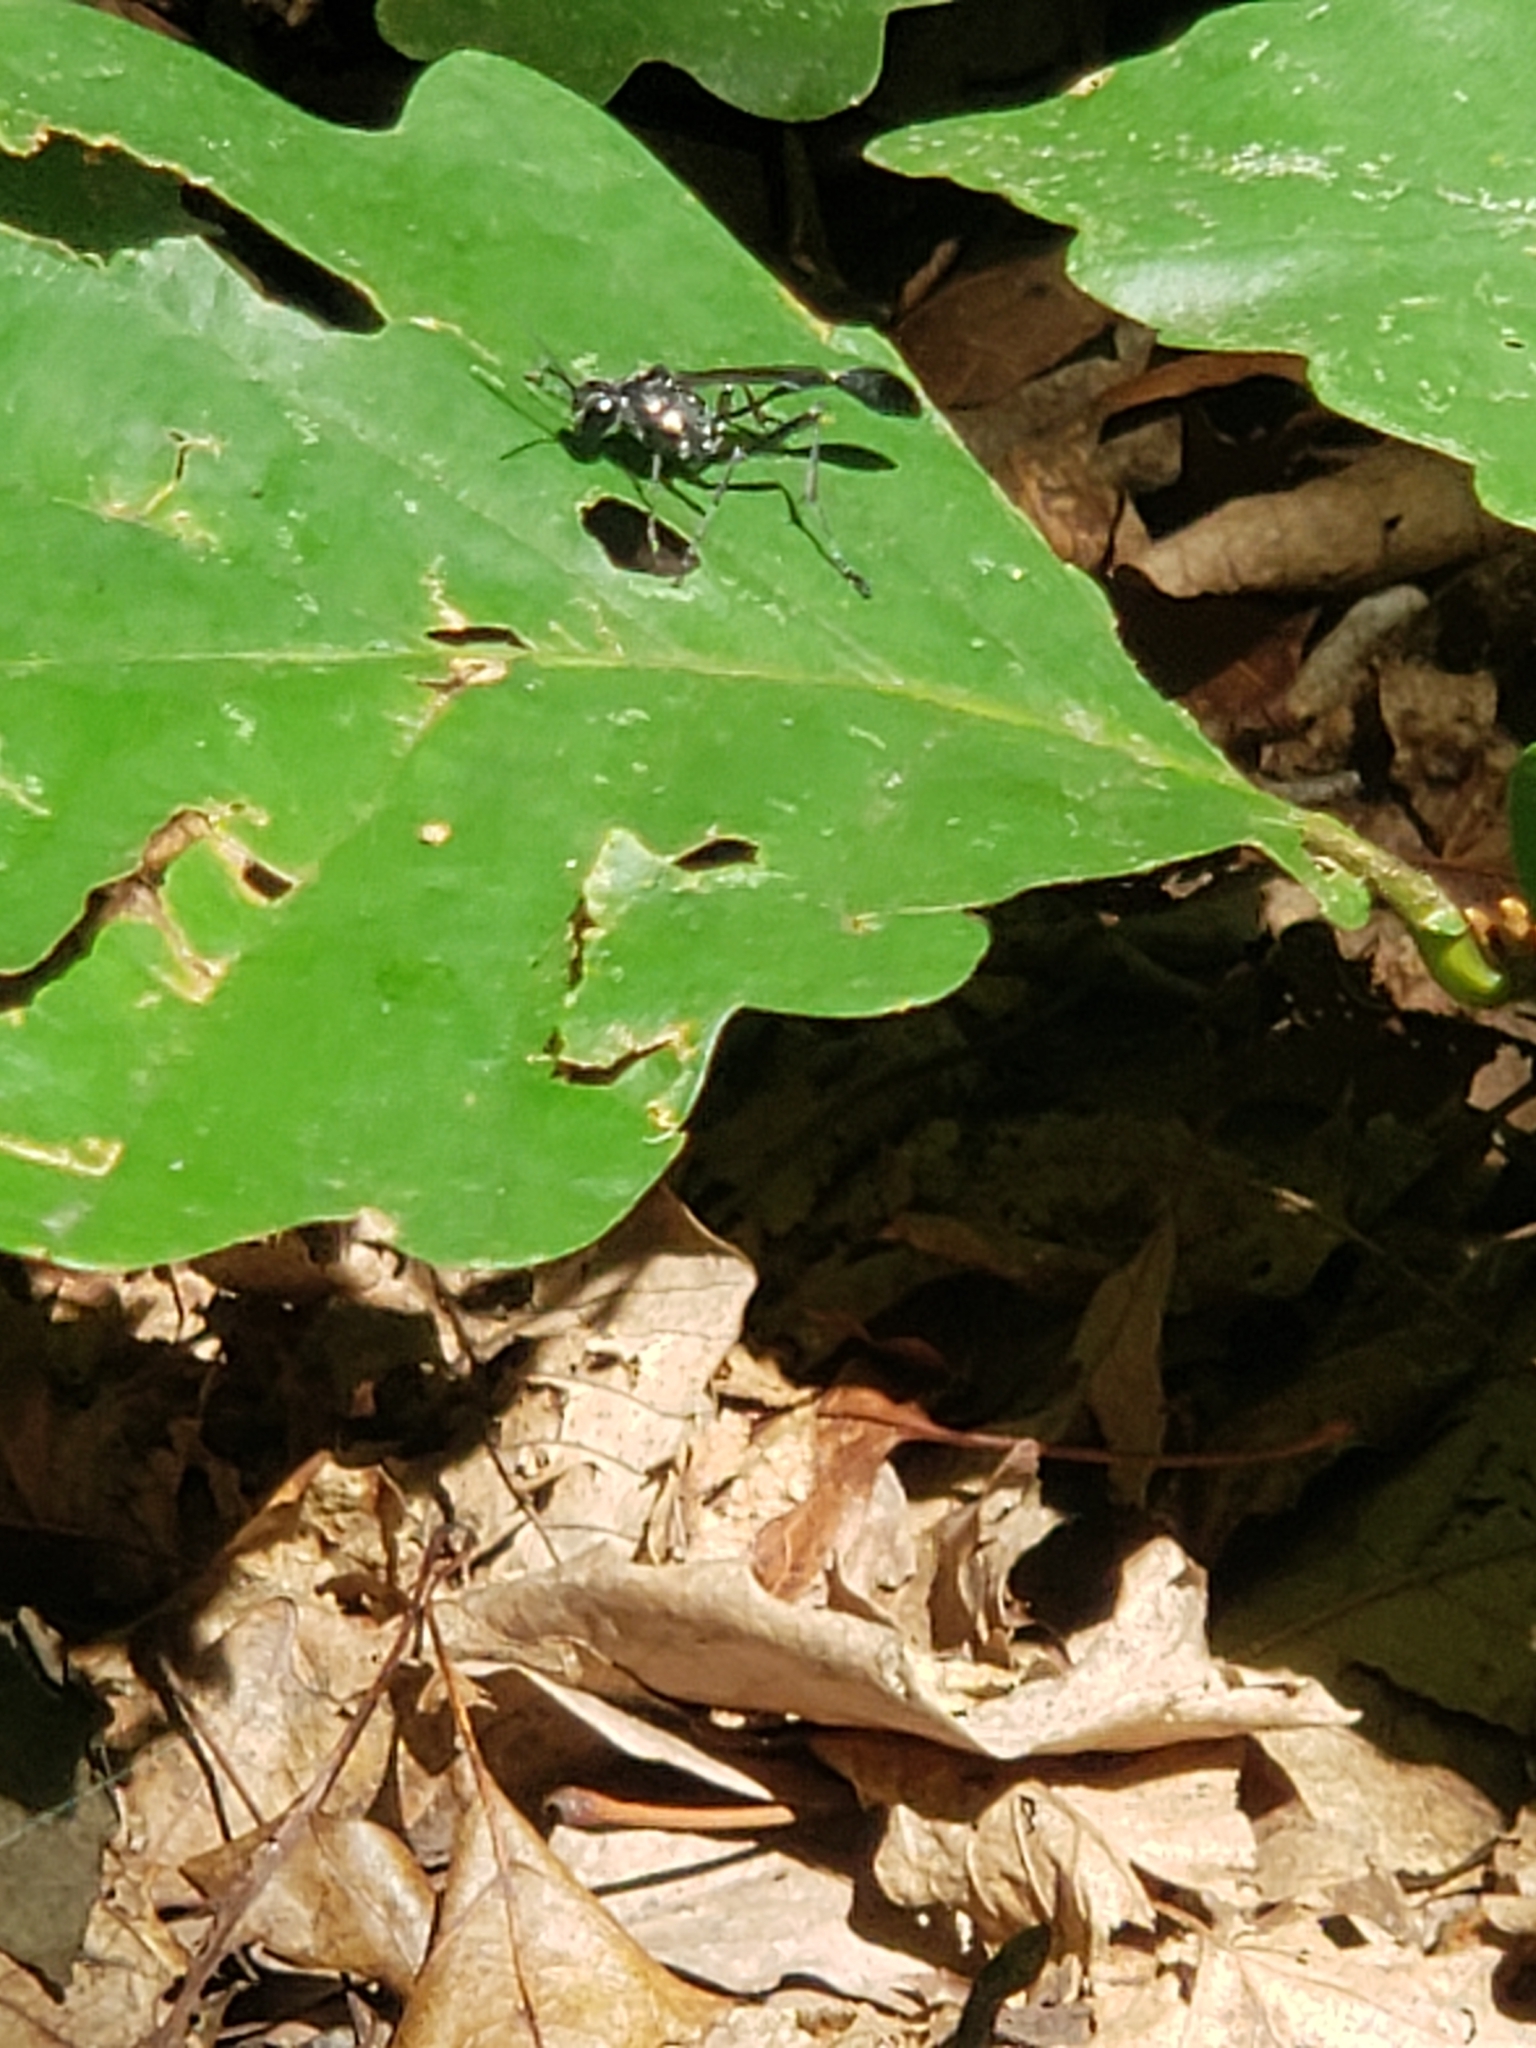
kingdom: Animalia
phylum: Arthropoda
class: Insecta
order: Hymenoptera
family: Sphecidae
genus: Eremnophila
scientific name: Eremnophila aureonotata
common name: Gold-marked thread-waisted wasp
